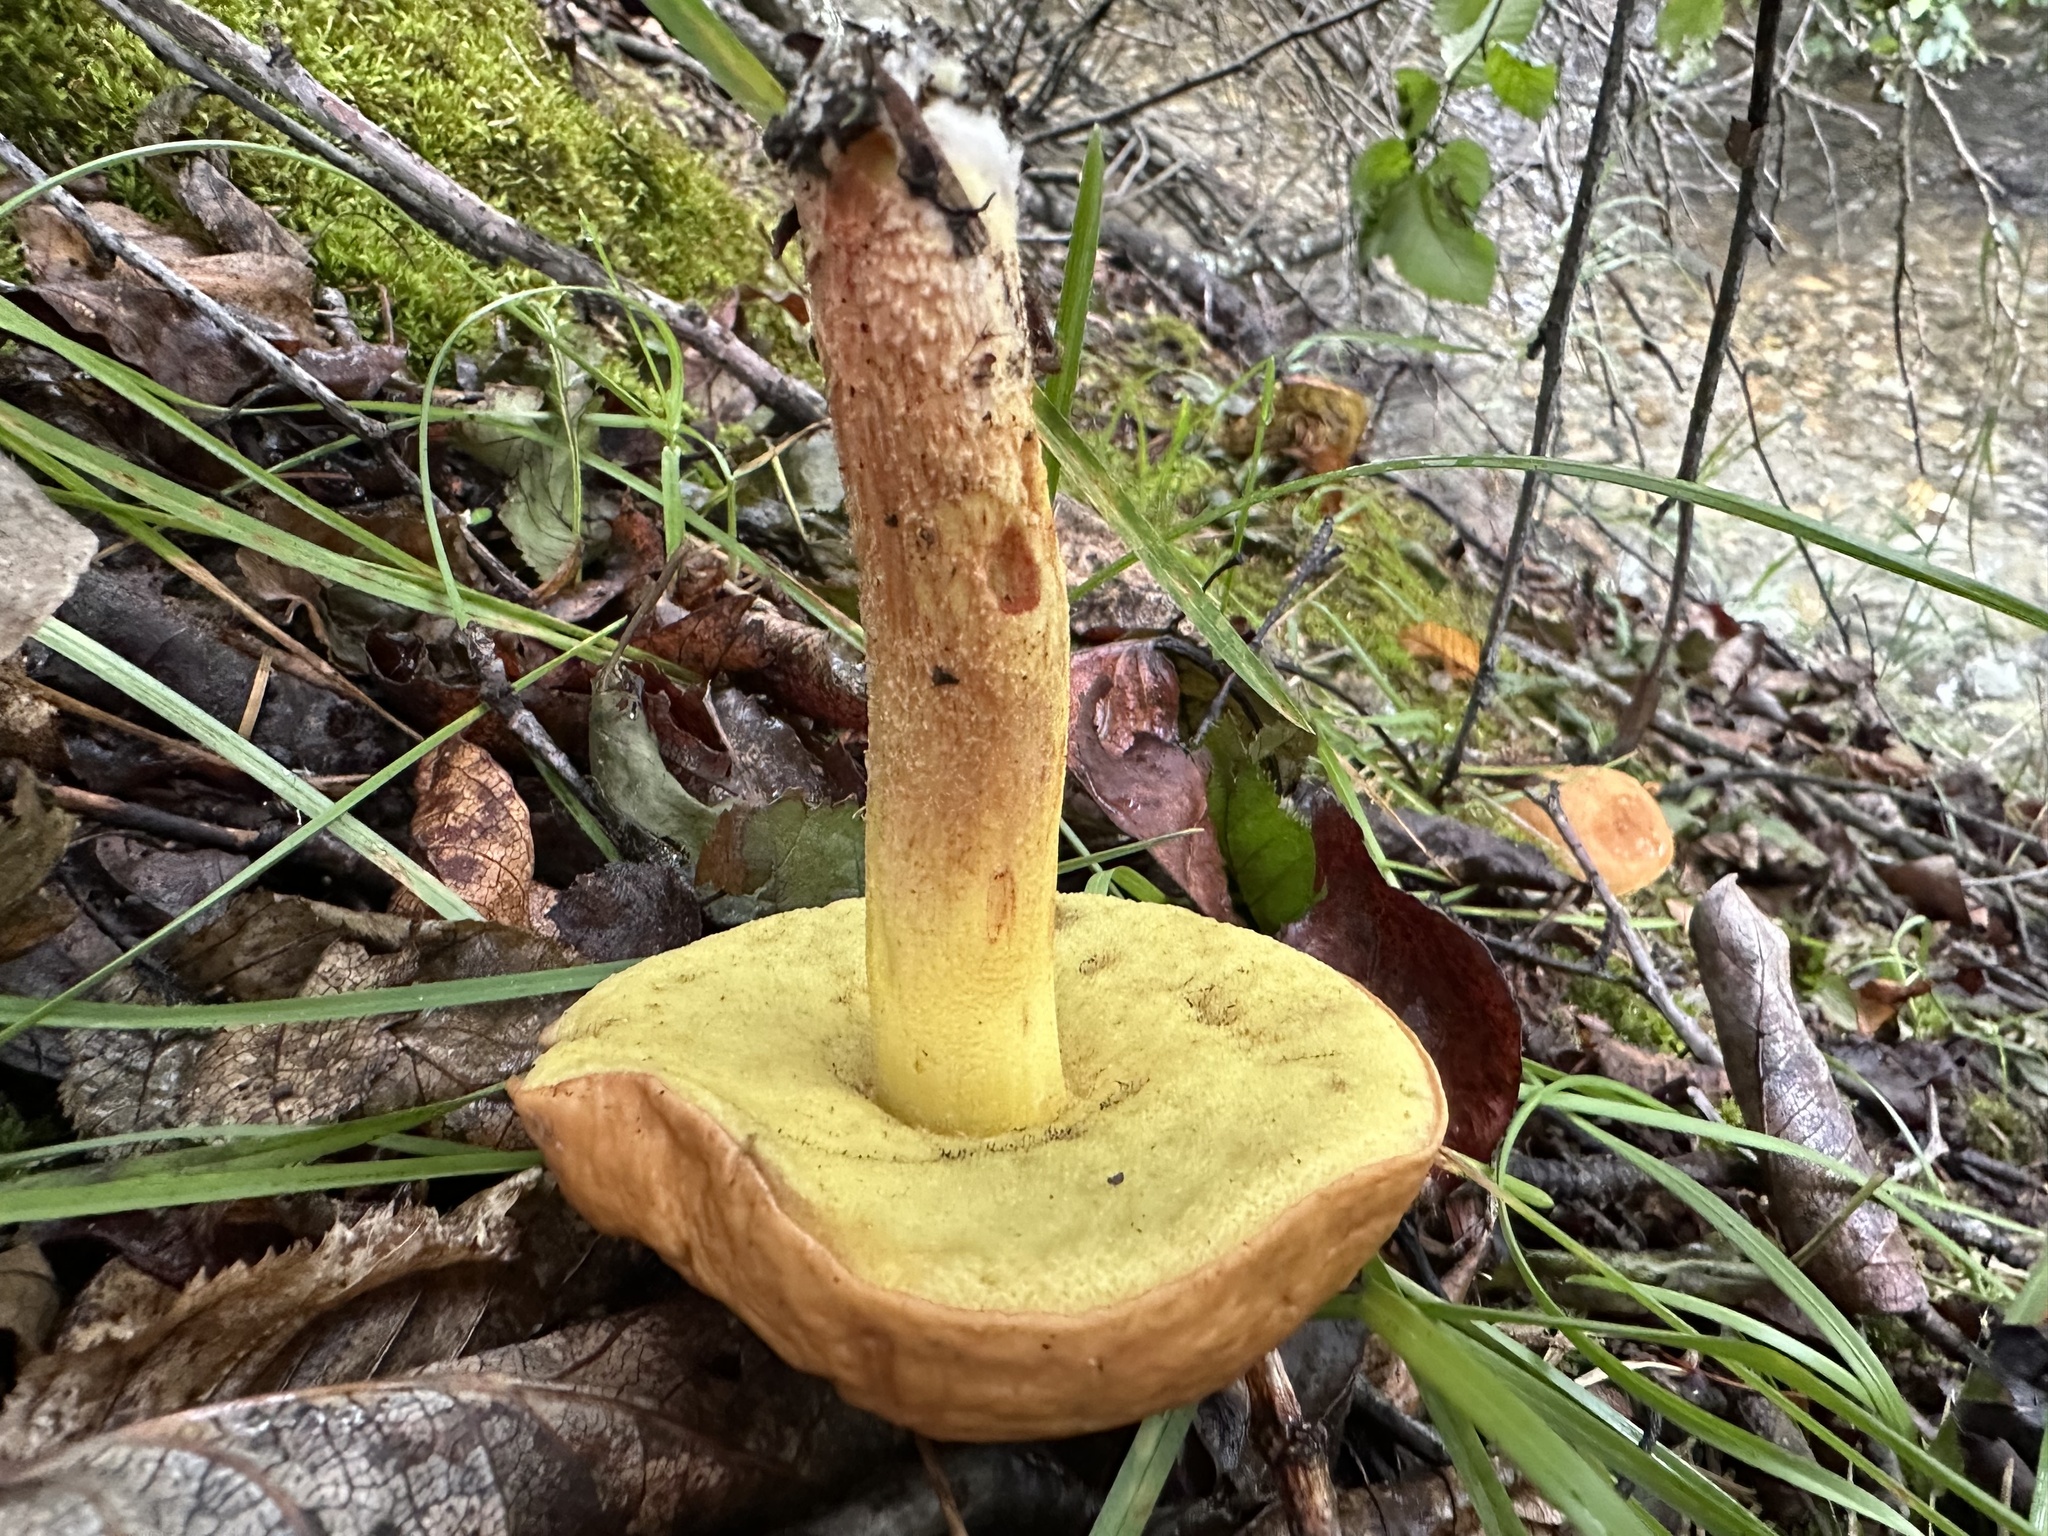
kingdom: Fungi
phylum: Basidiomycota
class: Agaricomycetes
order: Boletales
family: Boletaceae
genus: Hemileccinum
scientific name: Hemileccinum subglabripes
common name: Smoothish-stemmed bolete
